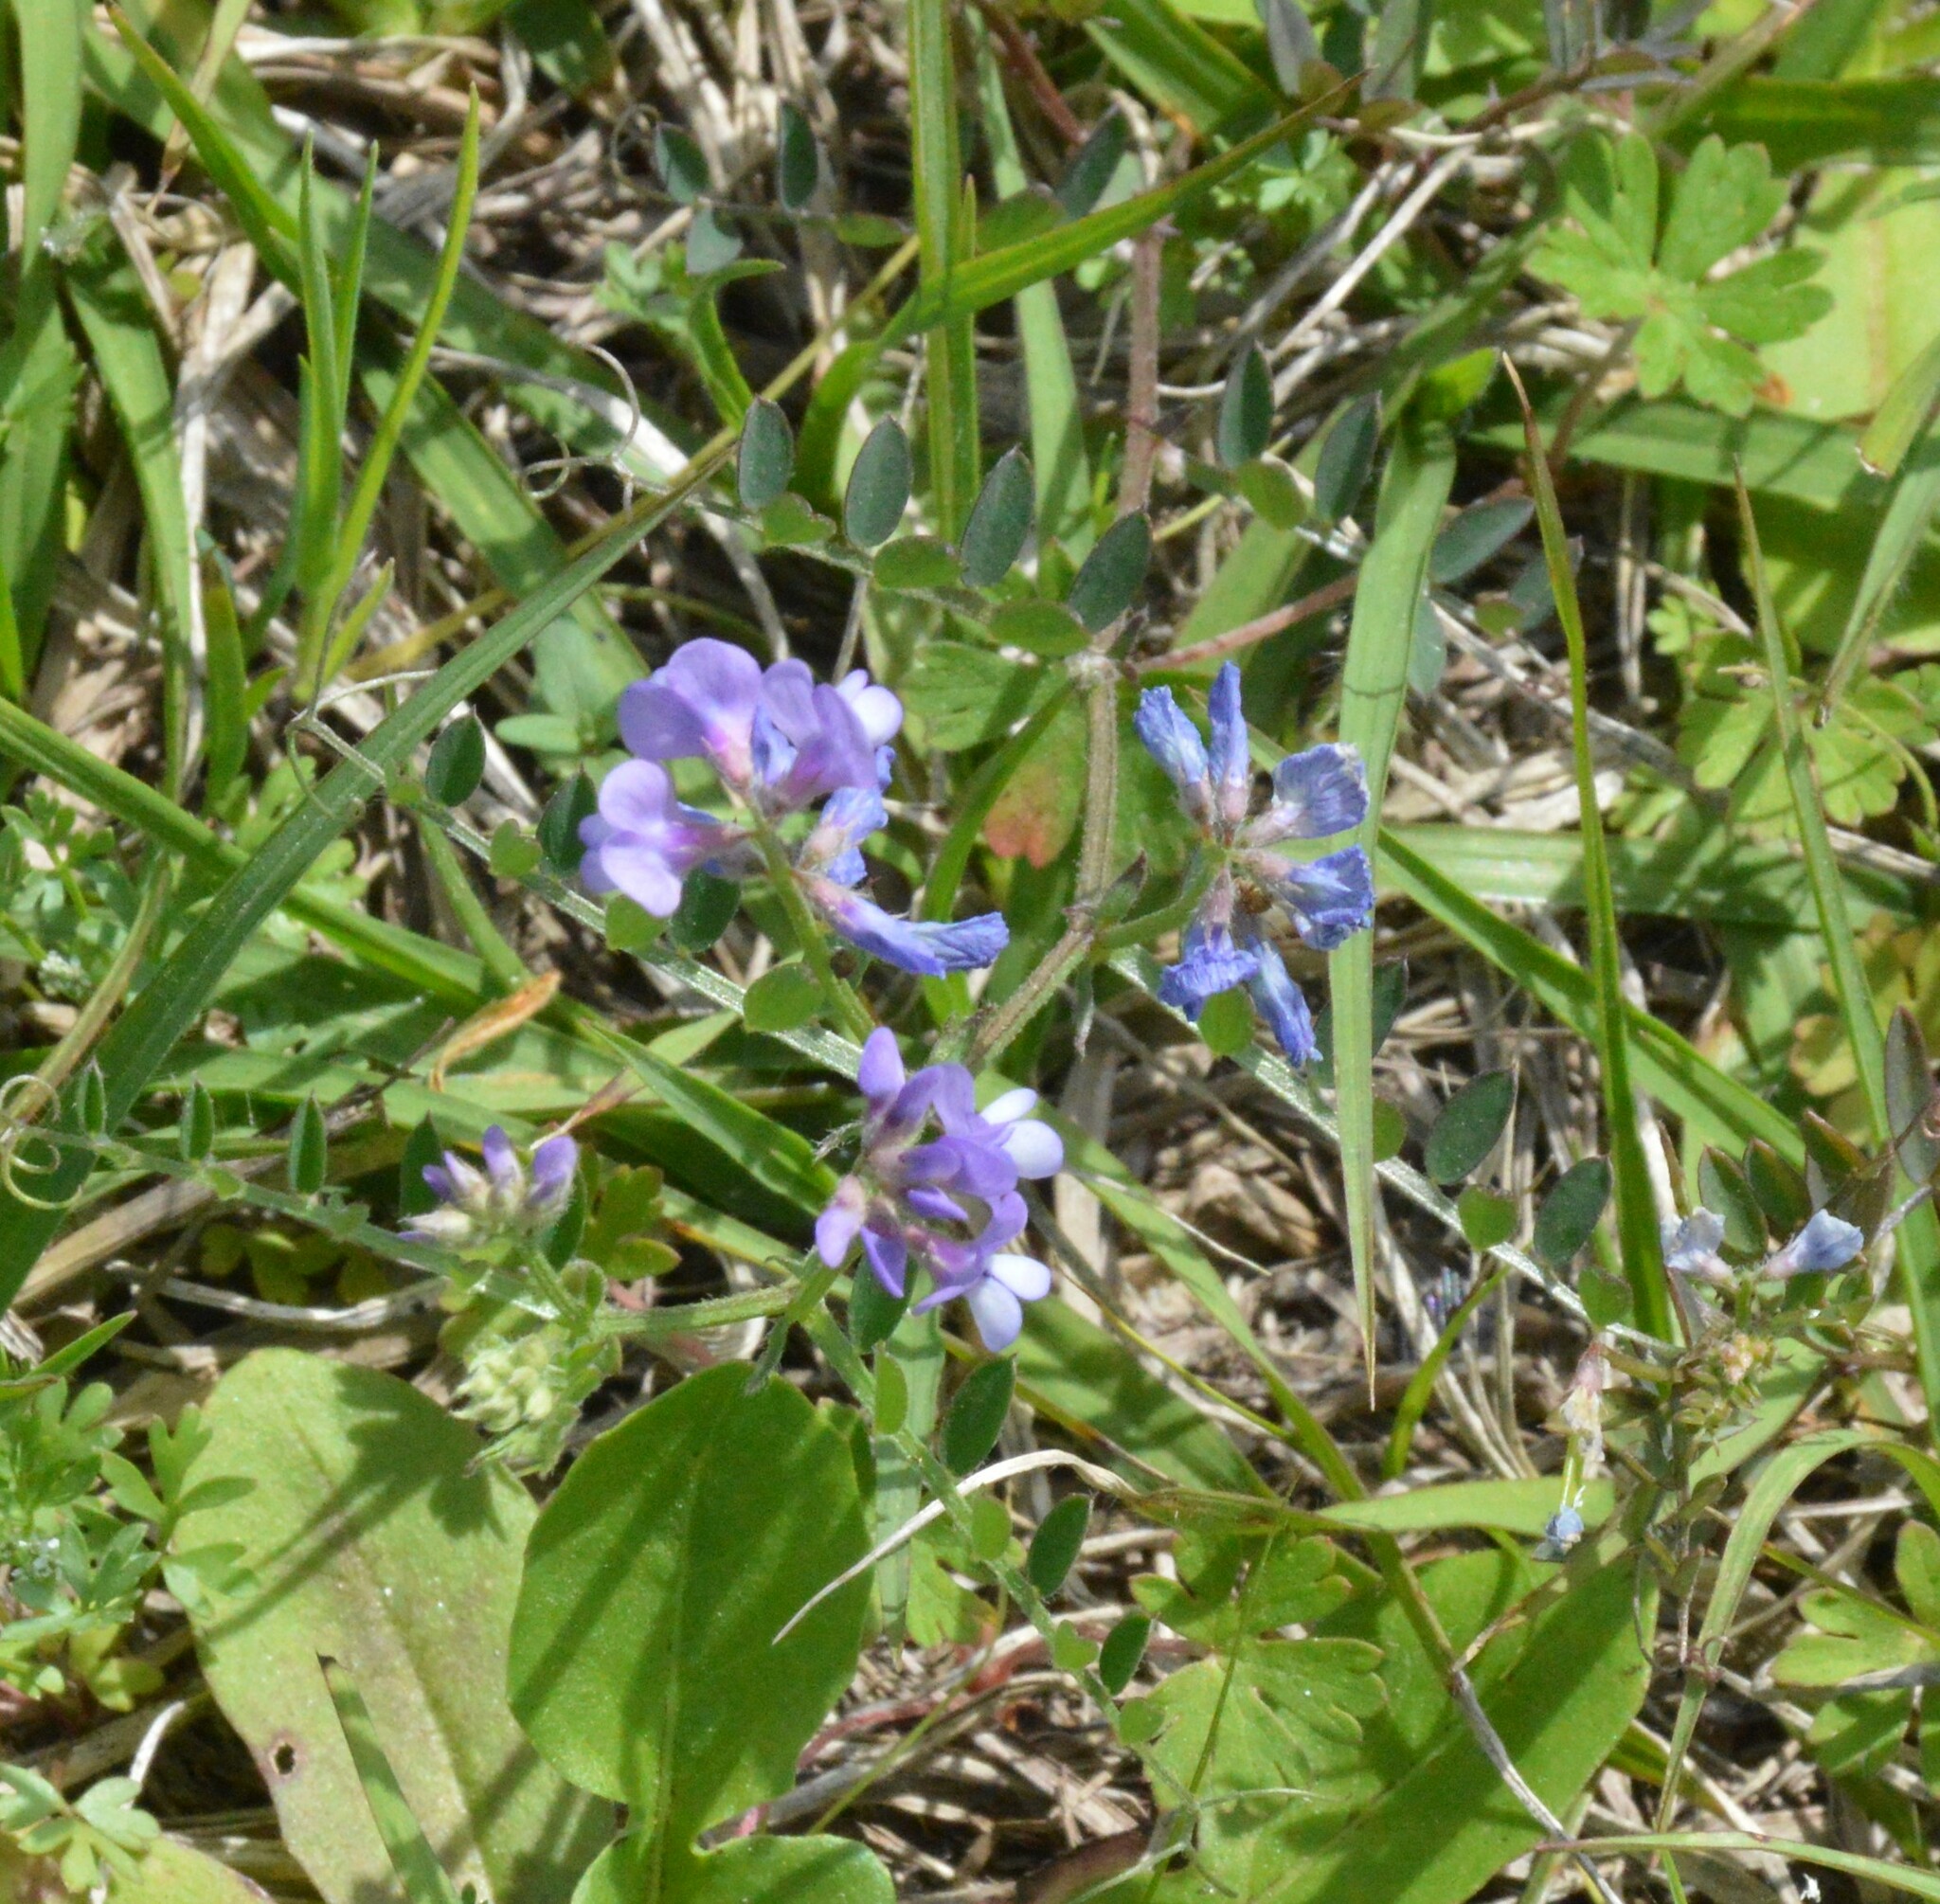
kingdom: Plantae
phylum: Tracheophyta
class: Magnoliopsida
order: Fabales
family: Fabaceae
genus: Vicia
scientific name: Vicia ludoviciana
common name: Louisiana vetch
